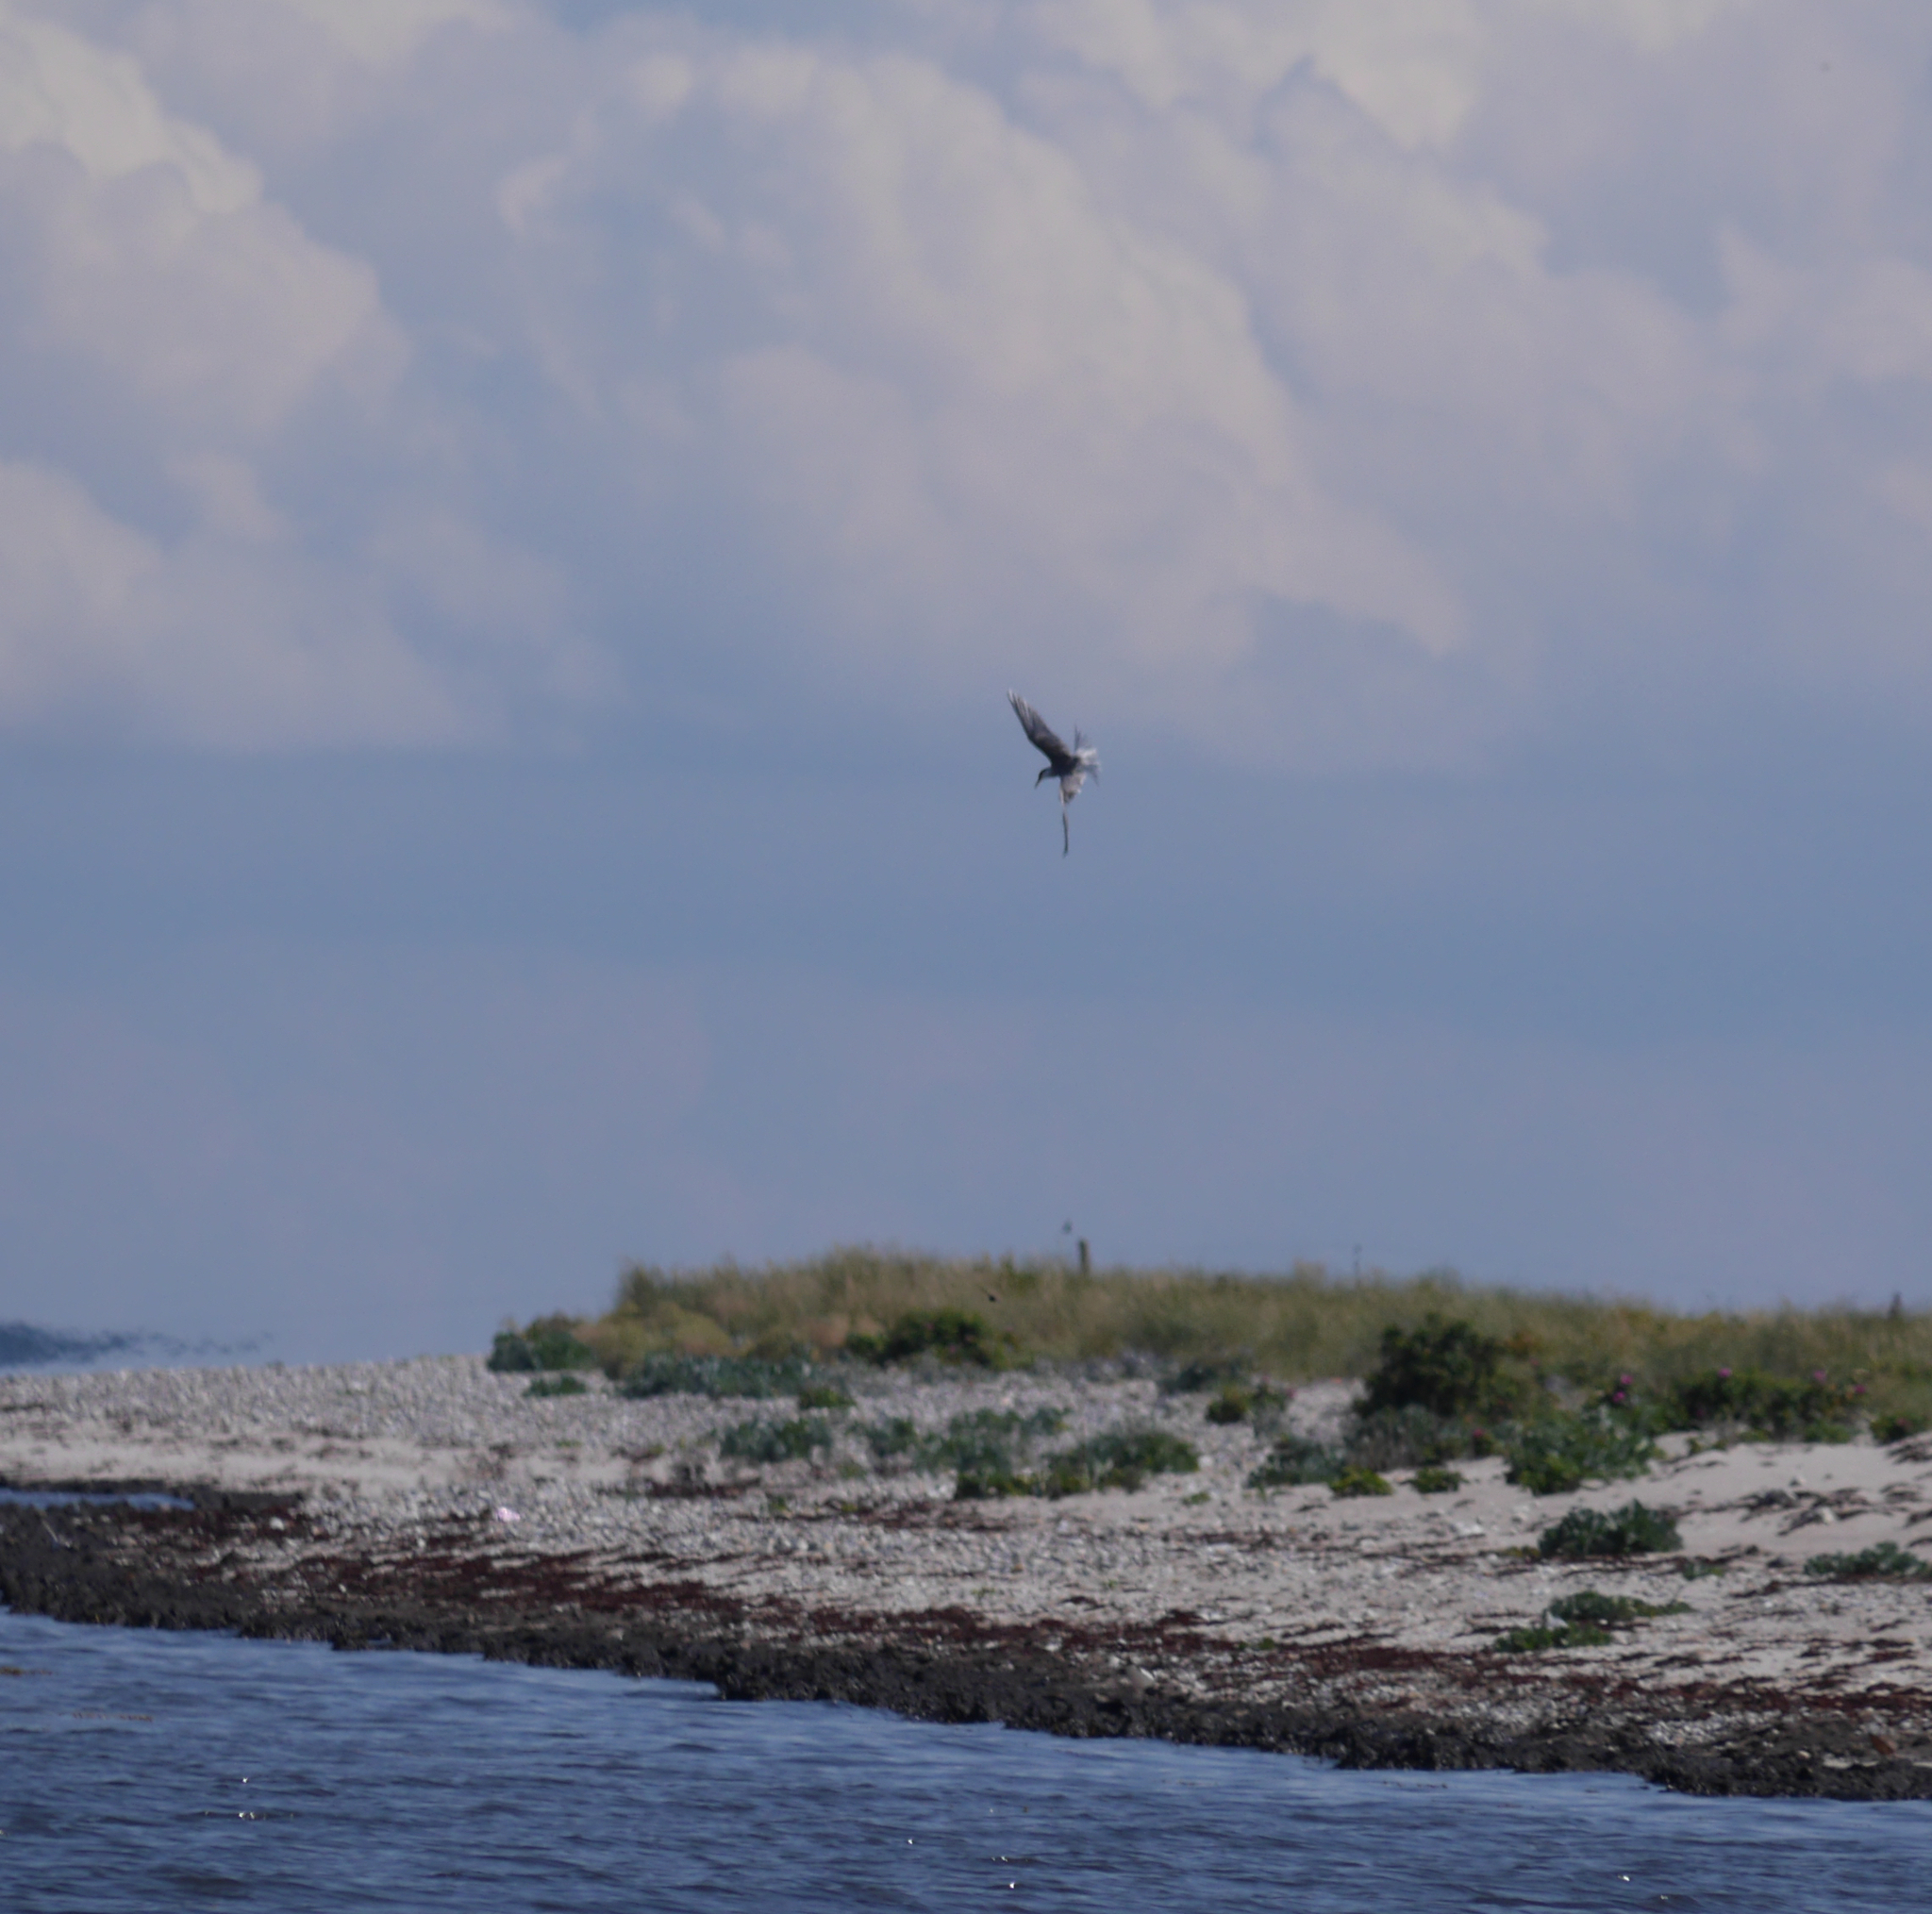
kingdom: Animalia
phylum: Chordata
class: Aves
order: Charadriiformes
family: Laridae
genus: Sterna
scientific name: Sterna hirundo
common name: Common tern
